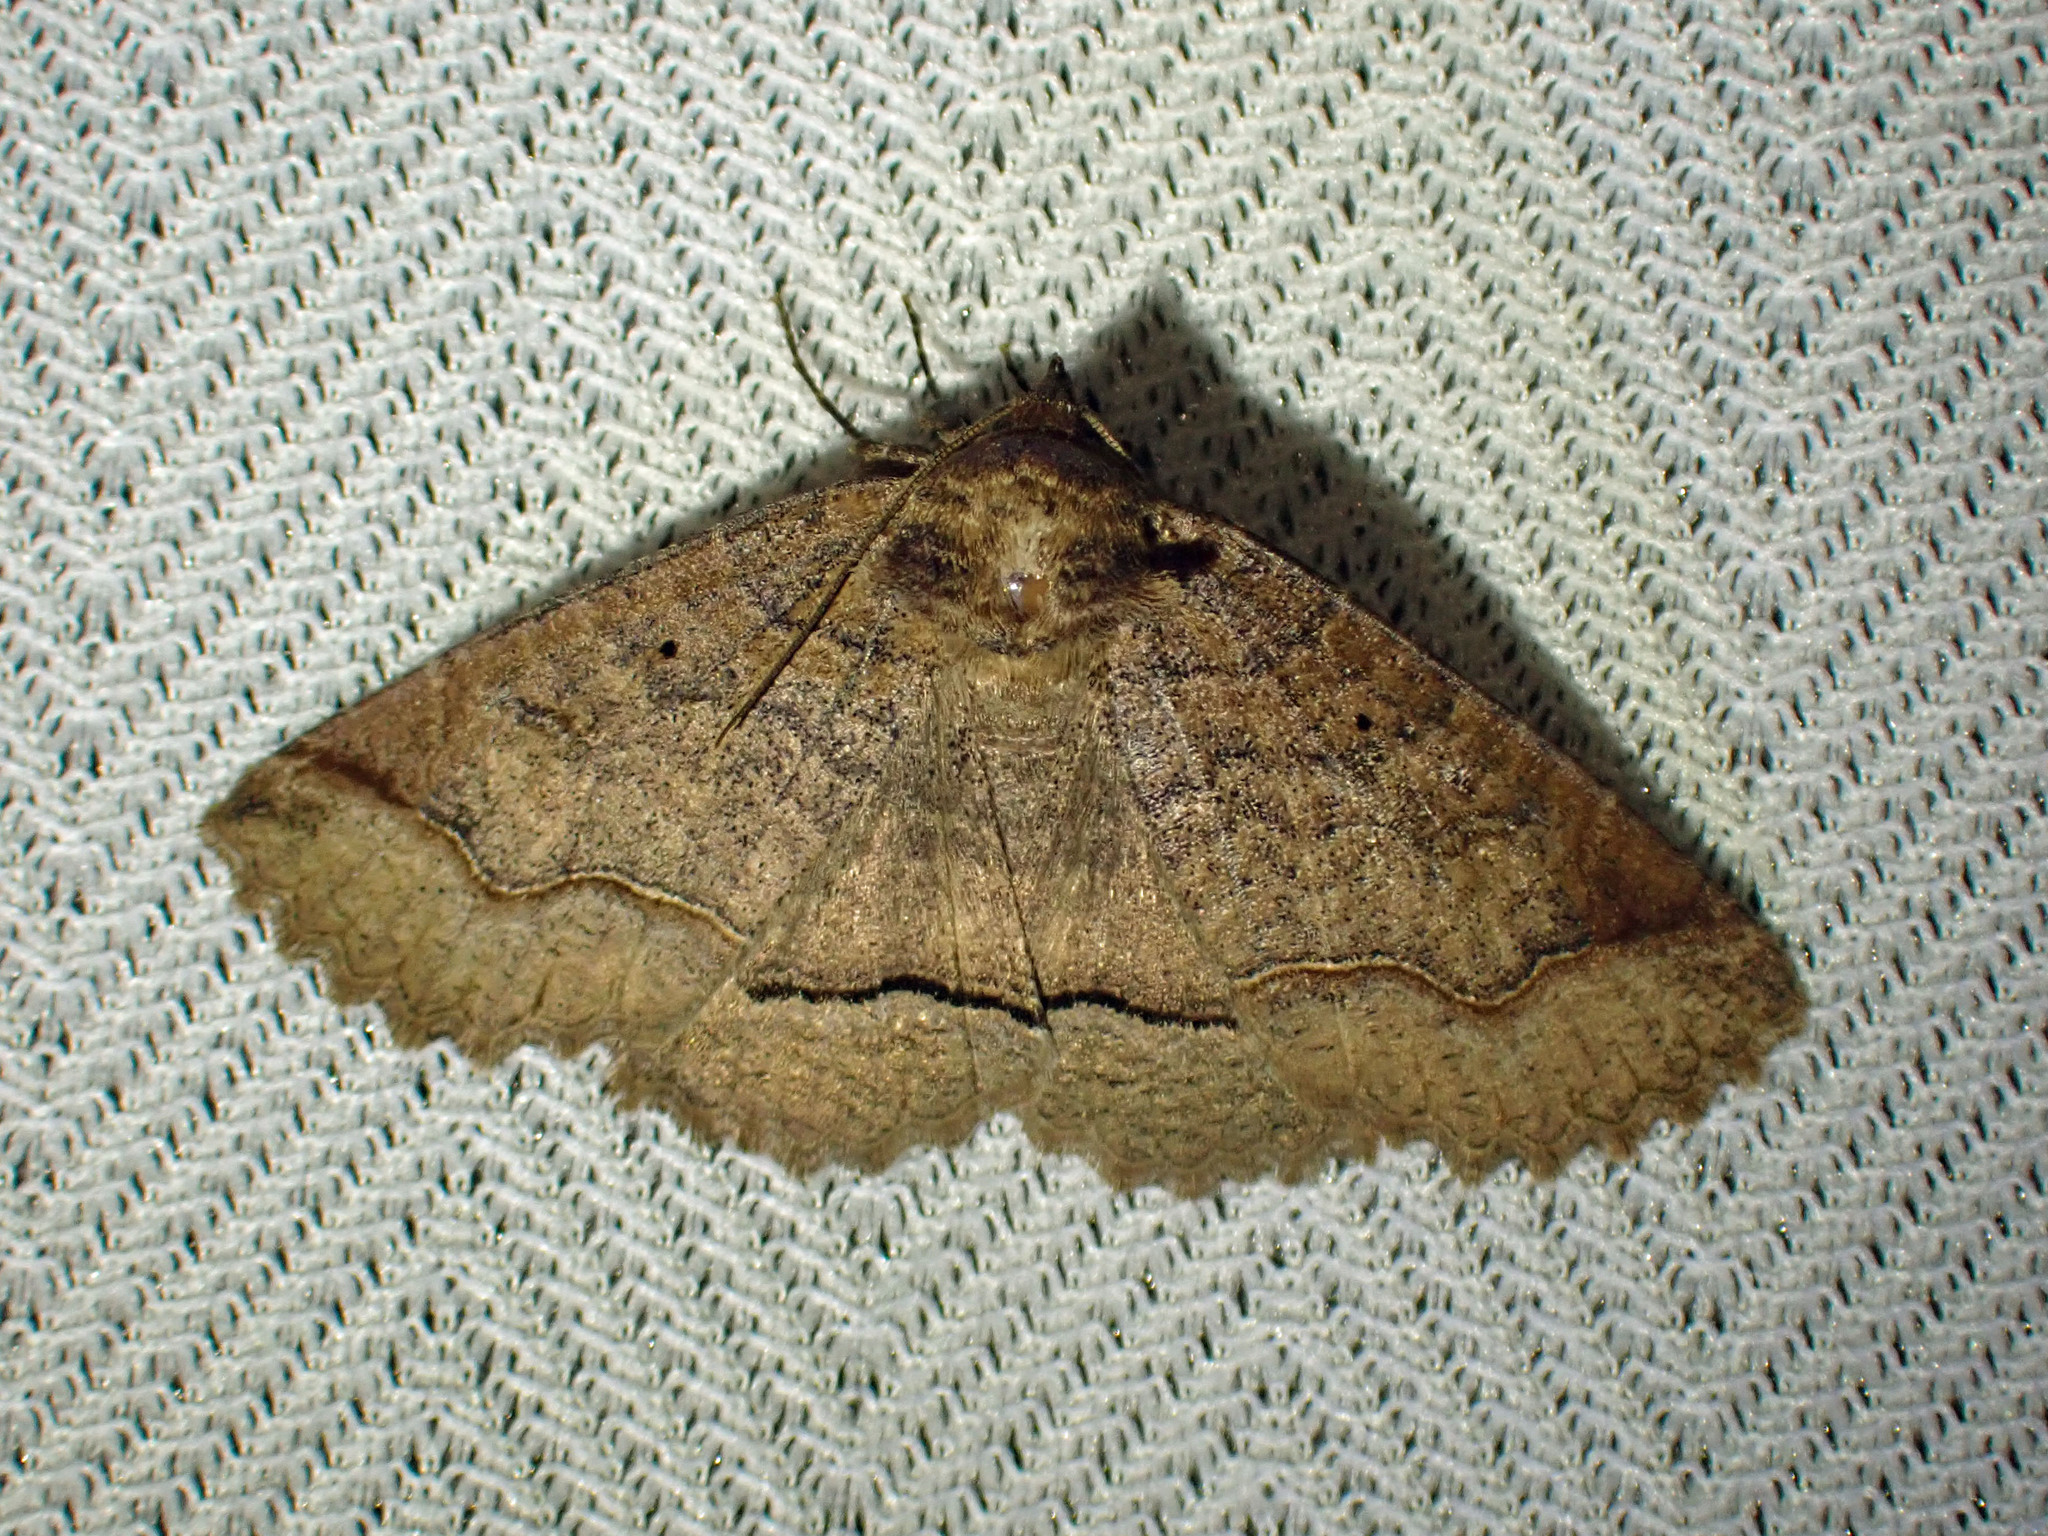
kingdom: Animalia
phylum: Arthropoda
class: Insecta
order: Lepidoptera
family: Erebidae
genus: Zale
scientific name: Zale unilineata
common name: One-lined zale moth
